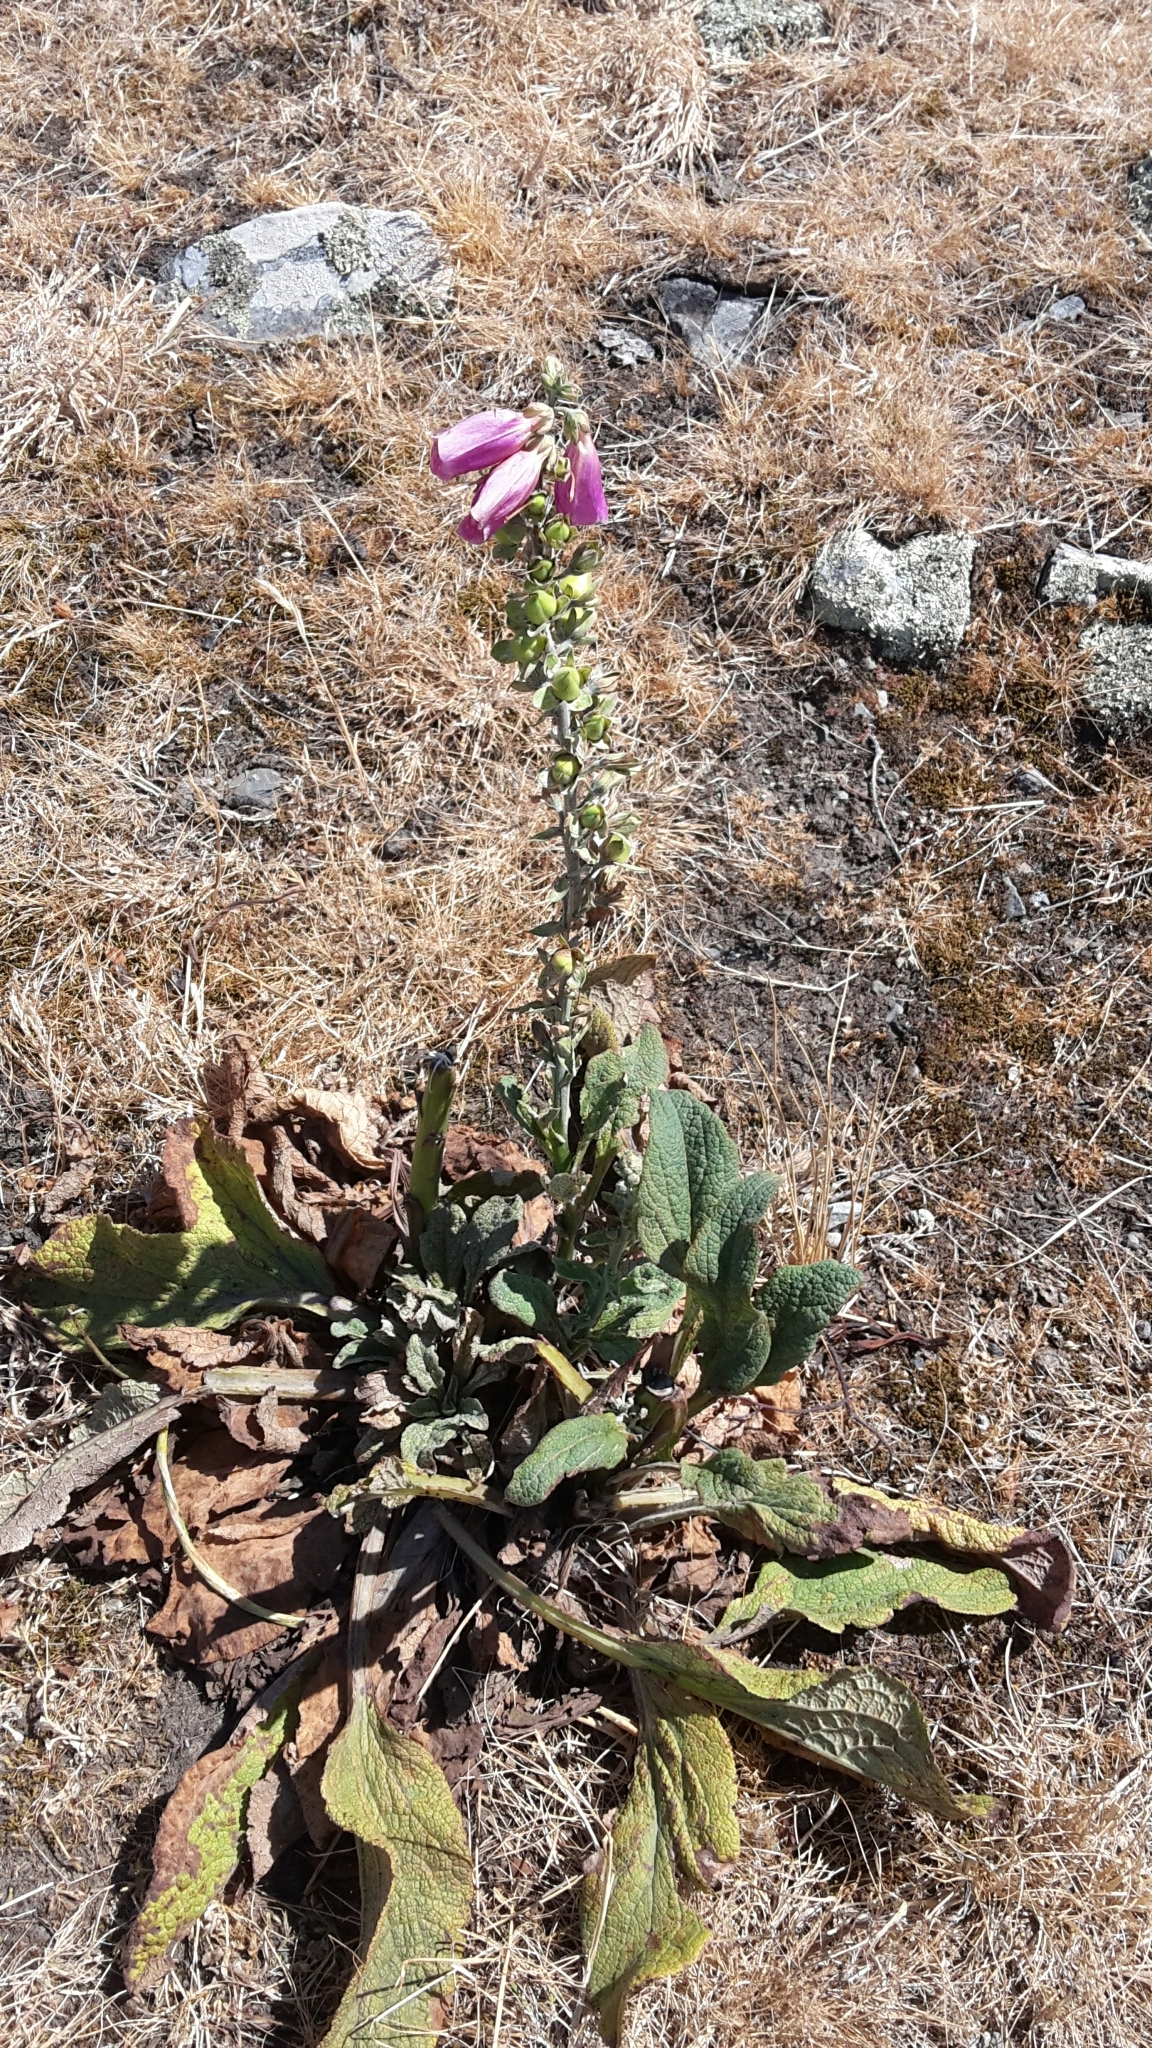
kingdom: Plantae
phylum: Tracheophyta
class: Magnoliopsida
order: Lamiales
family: Plantaginaceae
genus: Digitalis
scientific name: Digitalis purpurea
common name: Foxglove
